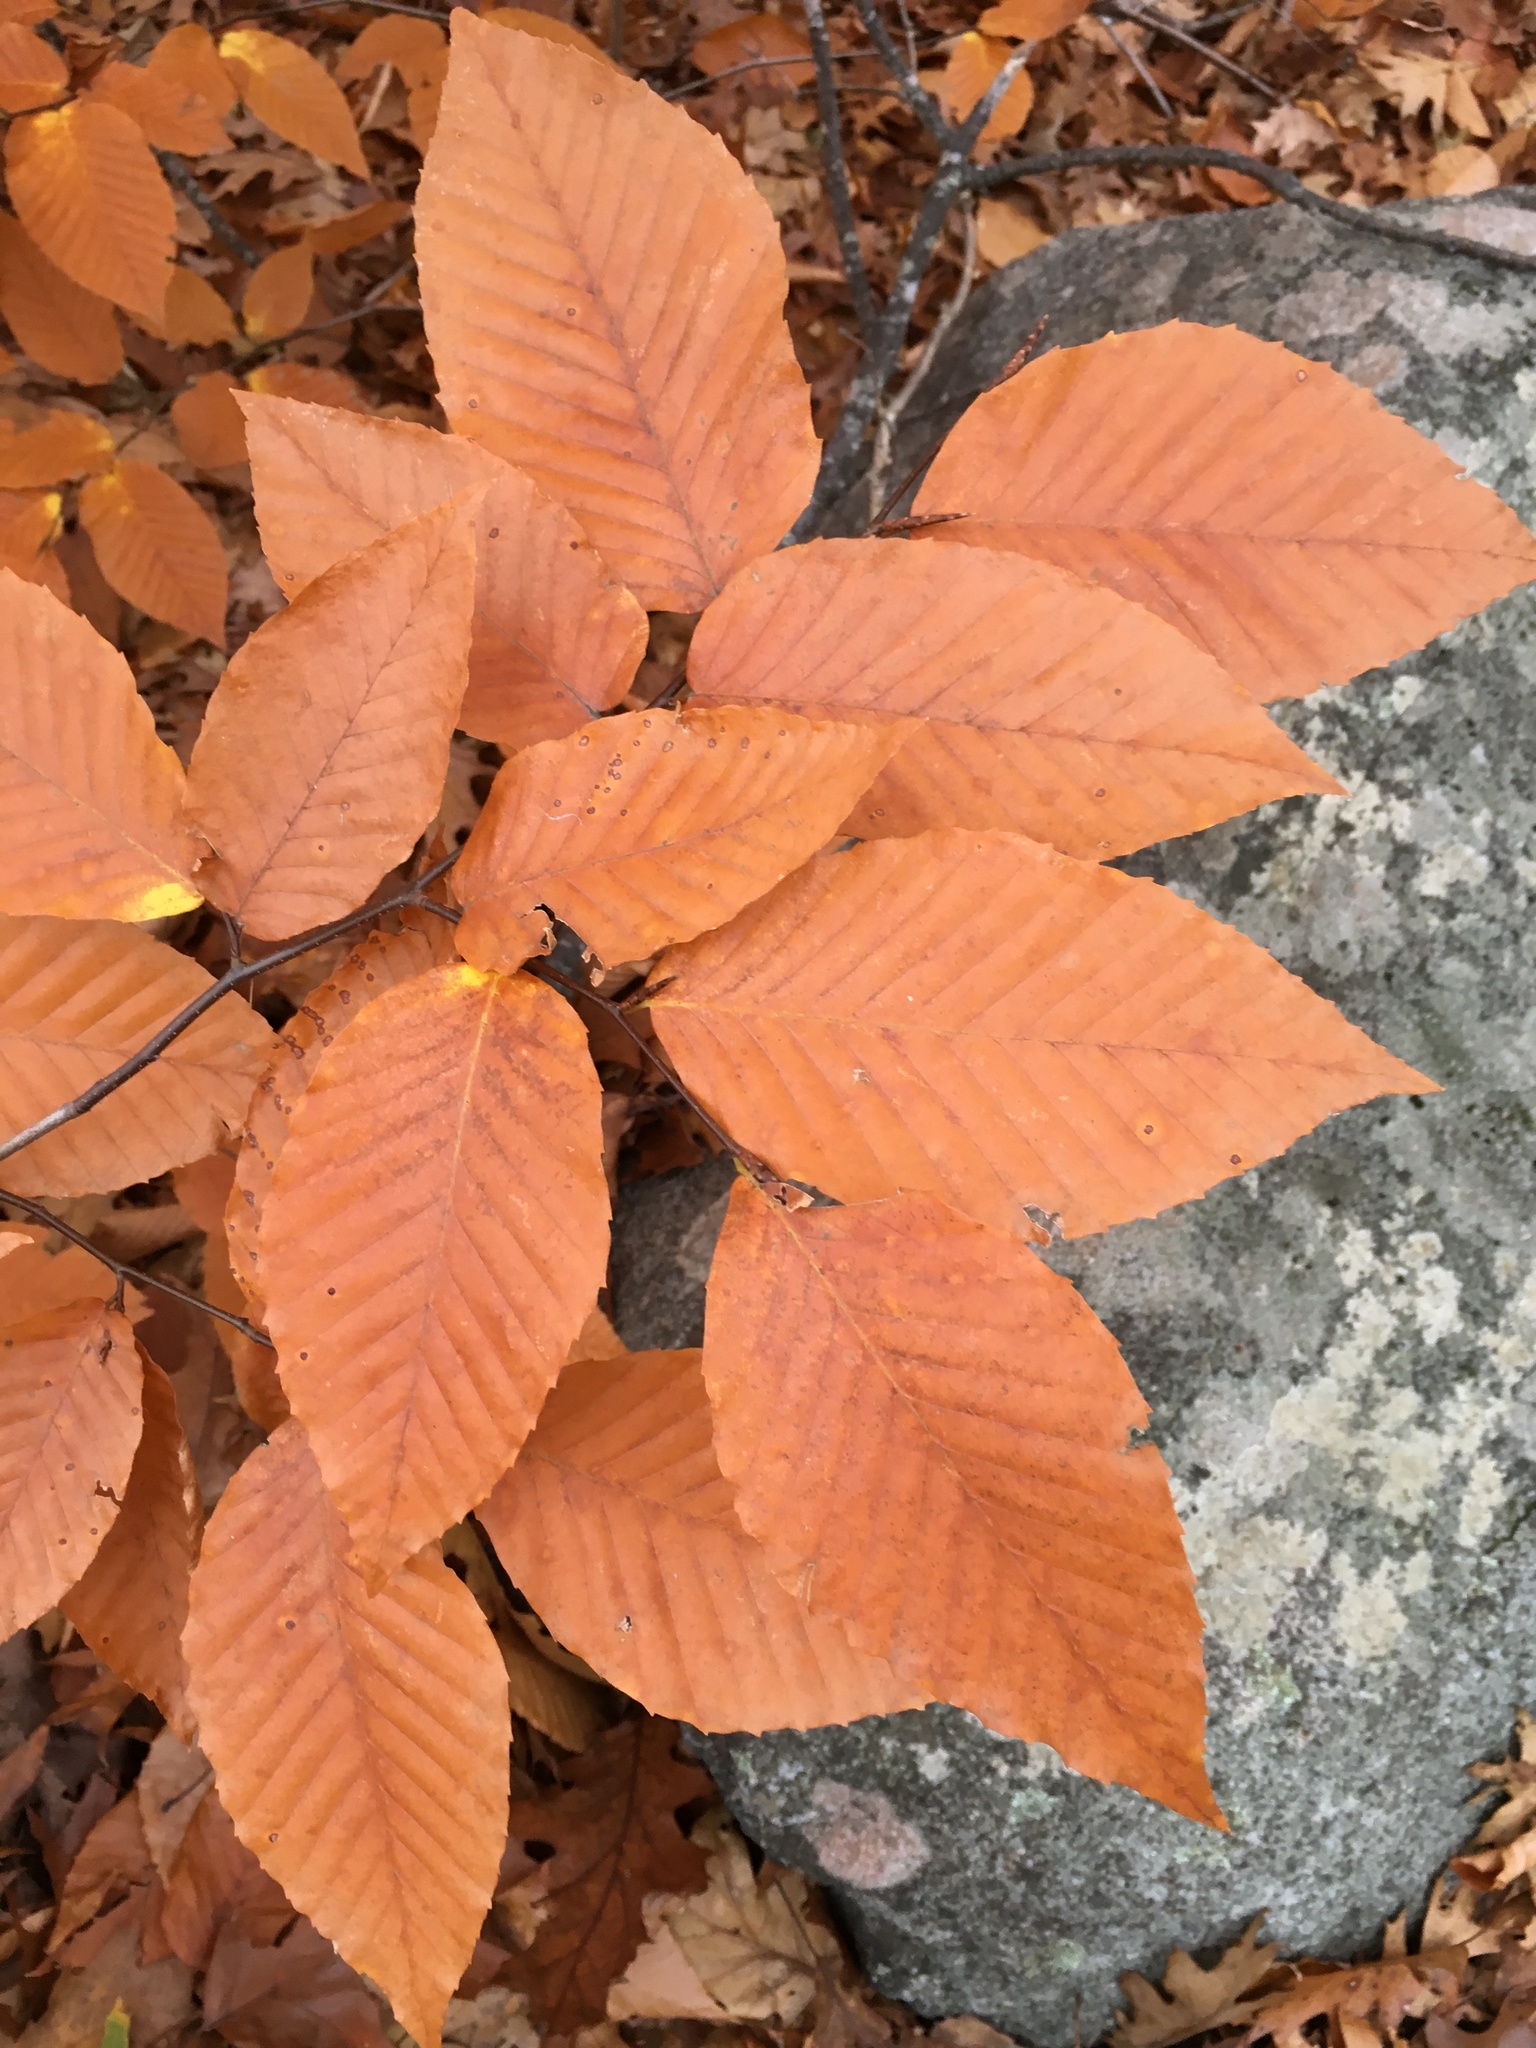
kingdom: Plantae
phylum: Tracheophyta
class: Magnoliopsida
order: Fagales
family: Fagaceae
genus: Fagus
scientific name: Fagus grandifolia
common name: American beech
